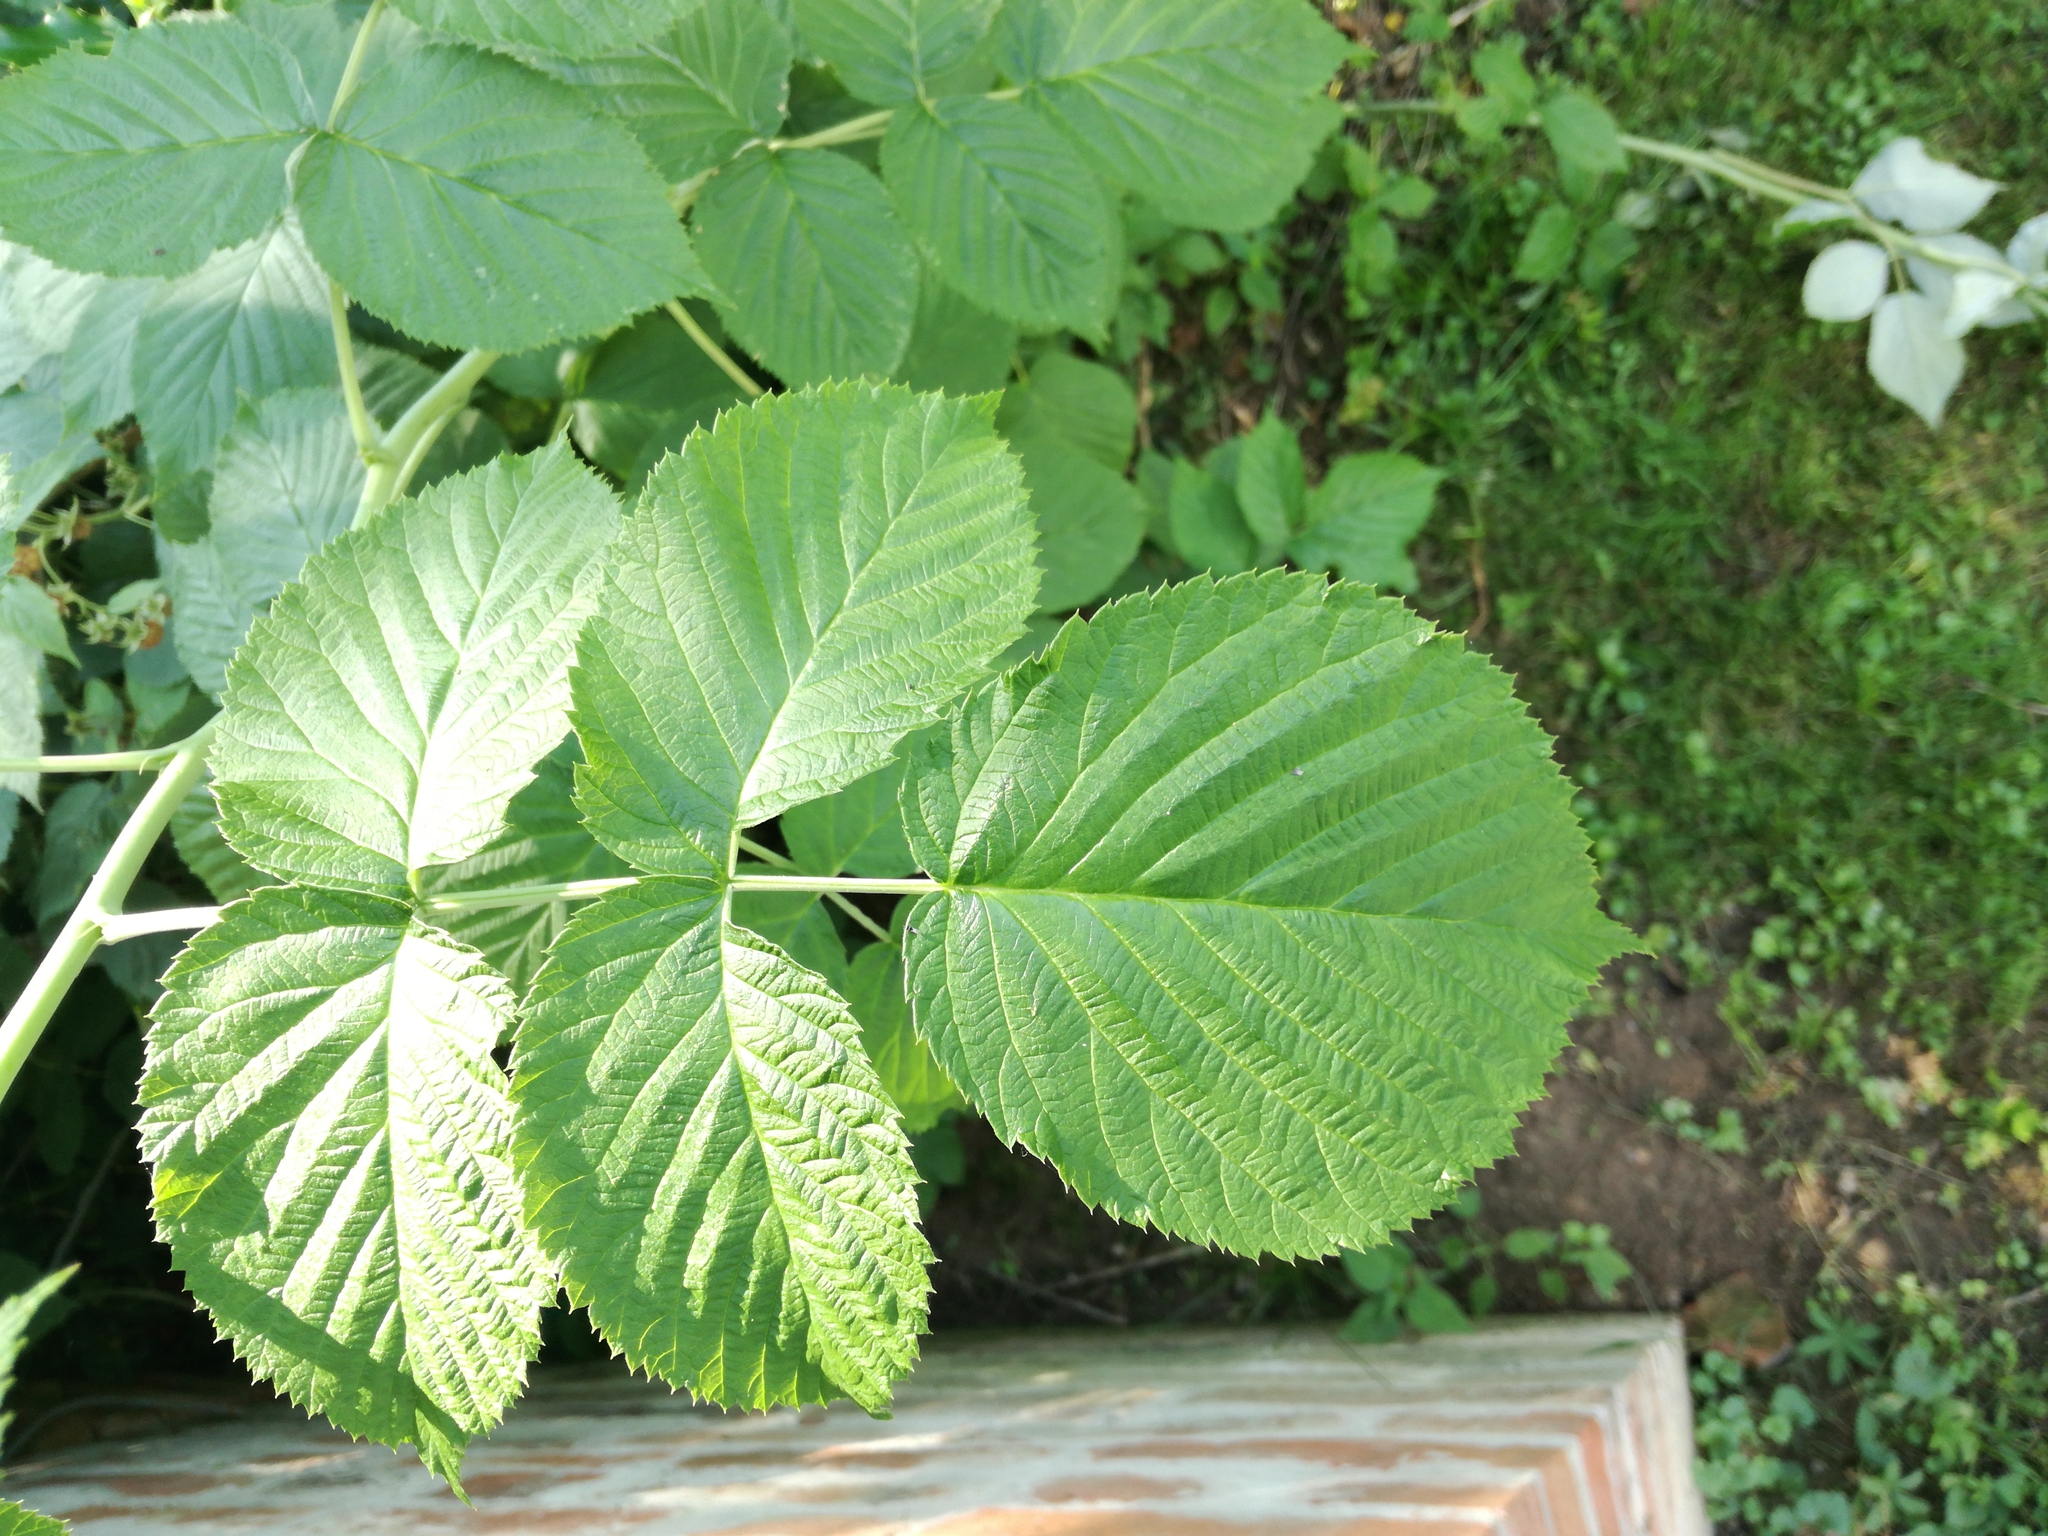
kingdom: Plantae
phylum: Tracheophyta
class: Magnoliopsida
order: Rosales
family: Rosaceae
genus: Rubus
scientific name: Rubus idaeus
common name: Raspberry
